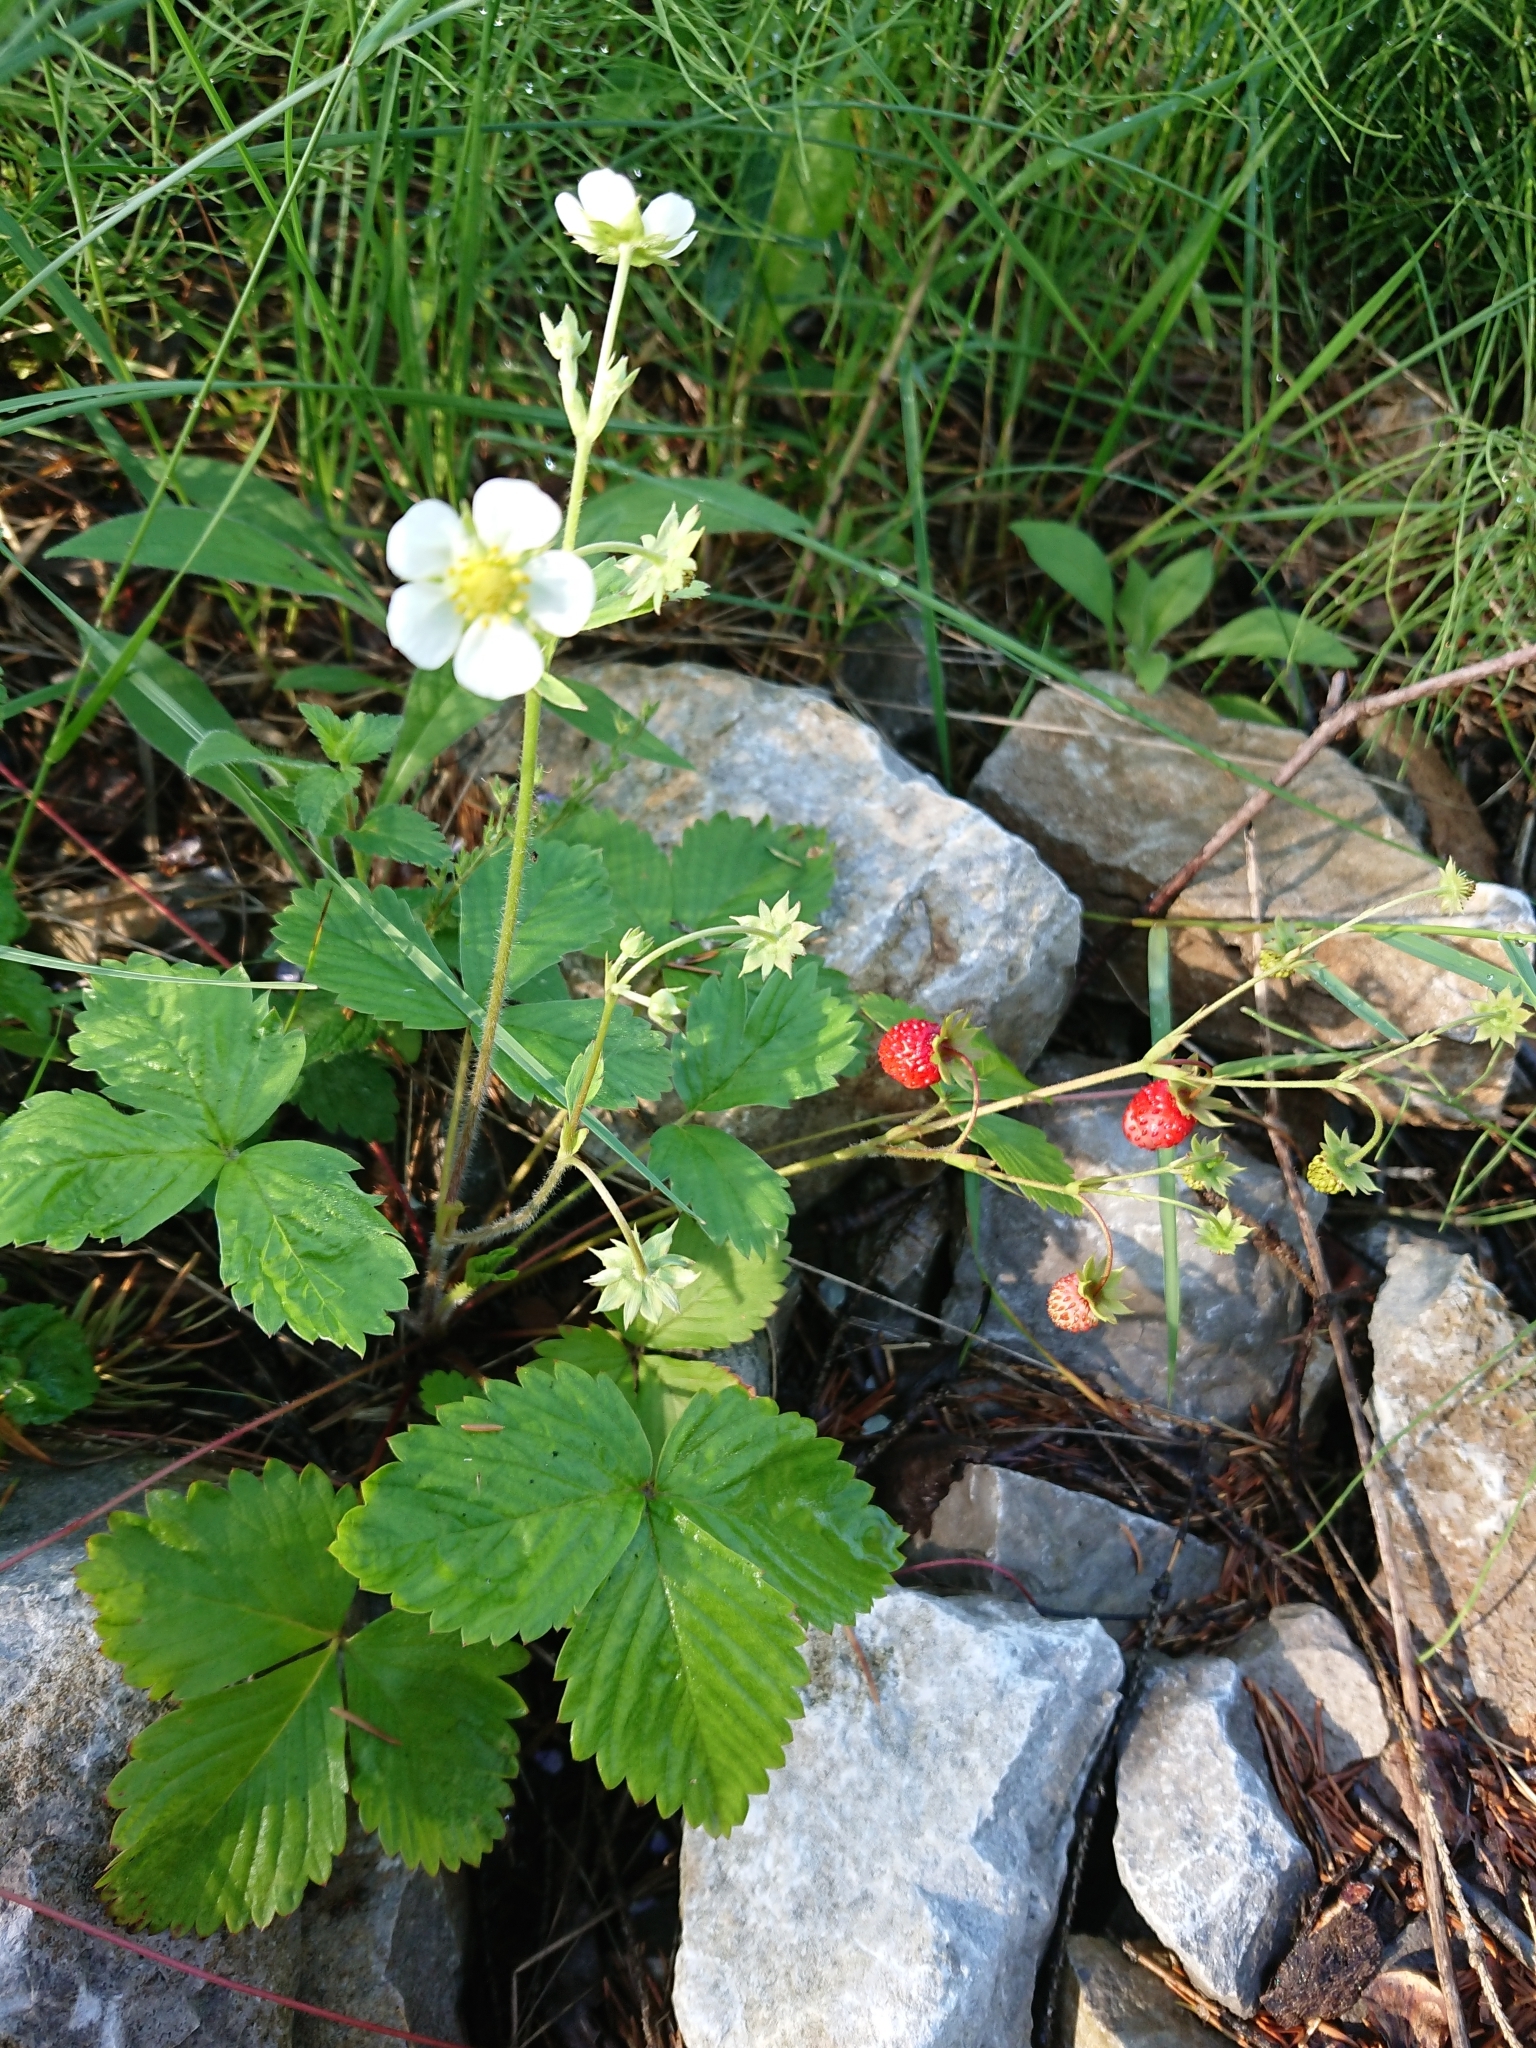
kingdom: Plantae
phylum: Tracheophyta
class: Magnoliopsida
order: Rosales
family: Rosaceae
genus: Fragaria
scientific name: Fragaria vesca
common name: Wild strawberry
